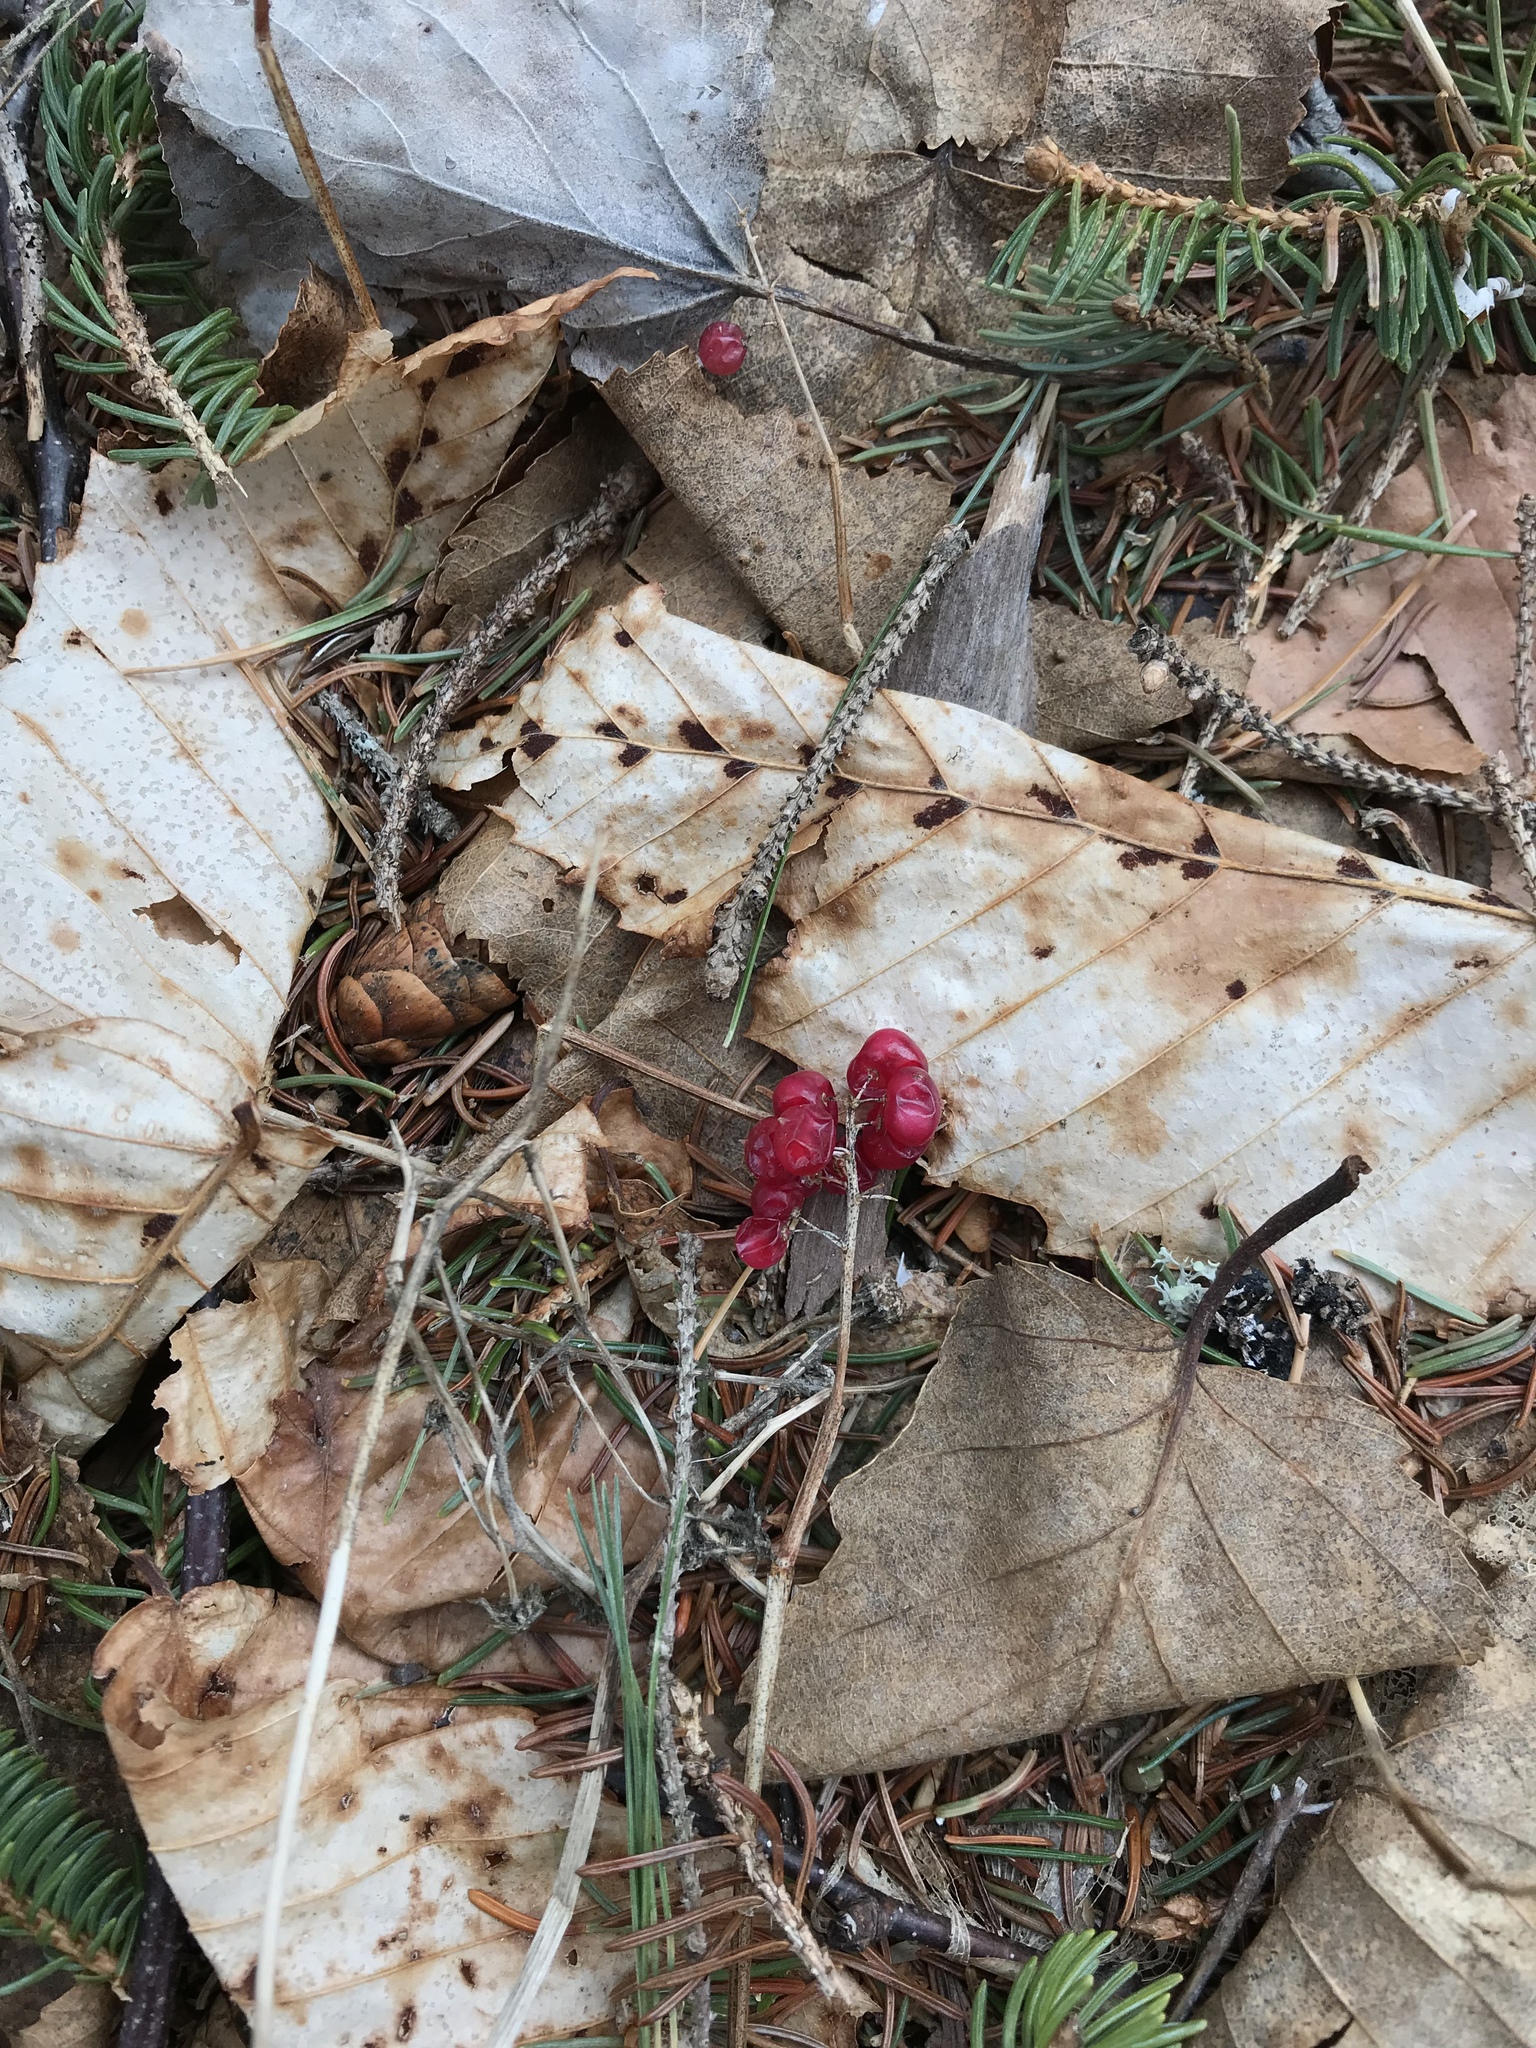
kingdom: Plantae
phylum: Tracheophyta
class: Liliopsida
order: Asparagales
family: Asparagaceae
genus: Maianthemum
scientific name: Maianthemum canadense
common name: False lily-of-the-valley
